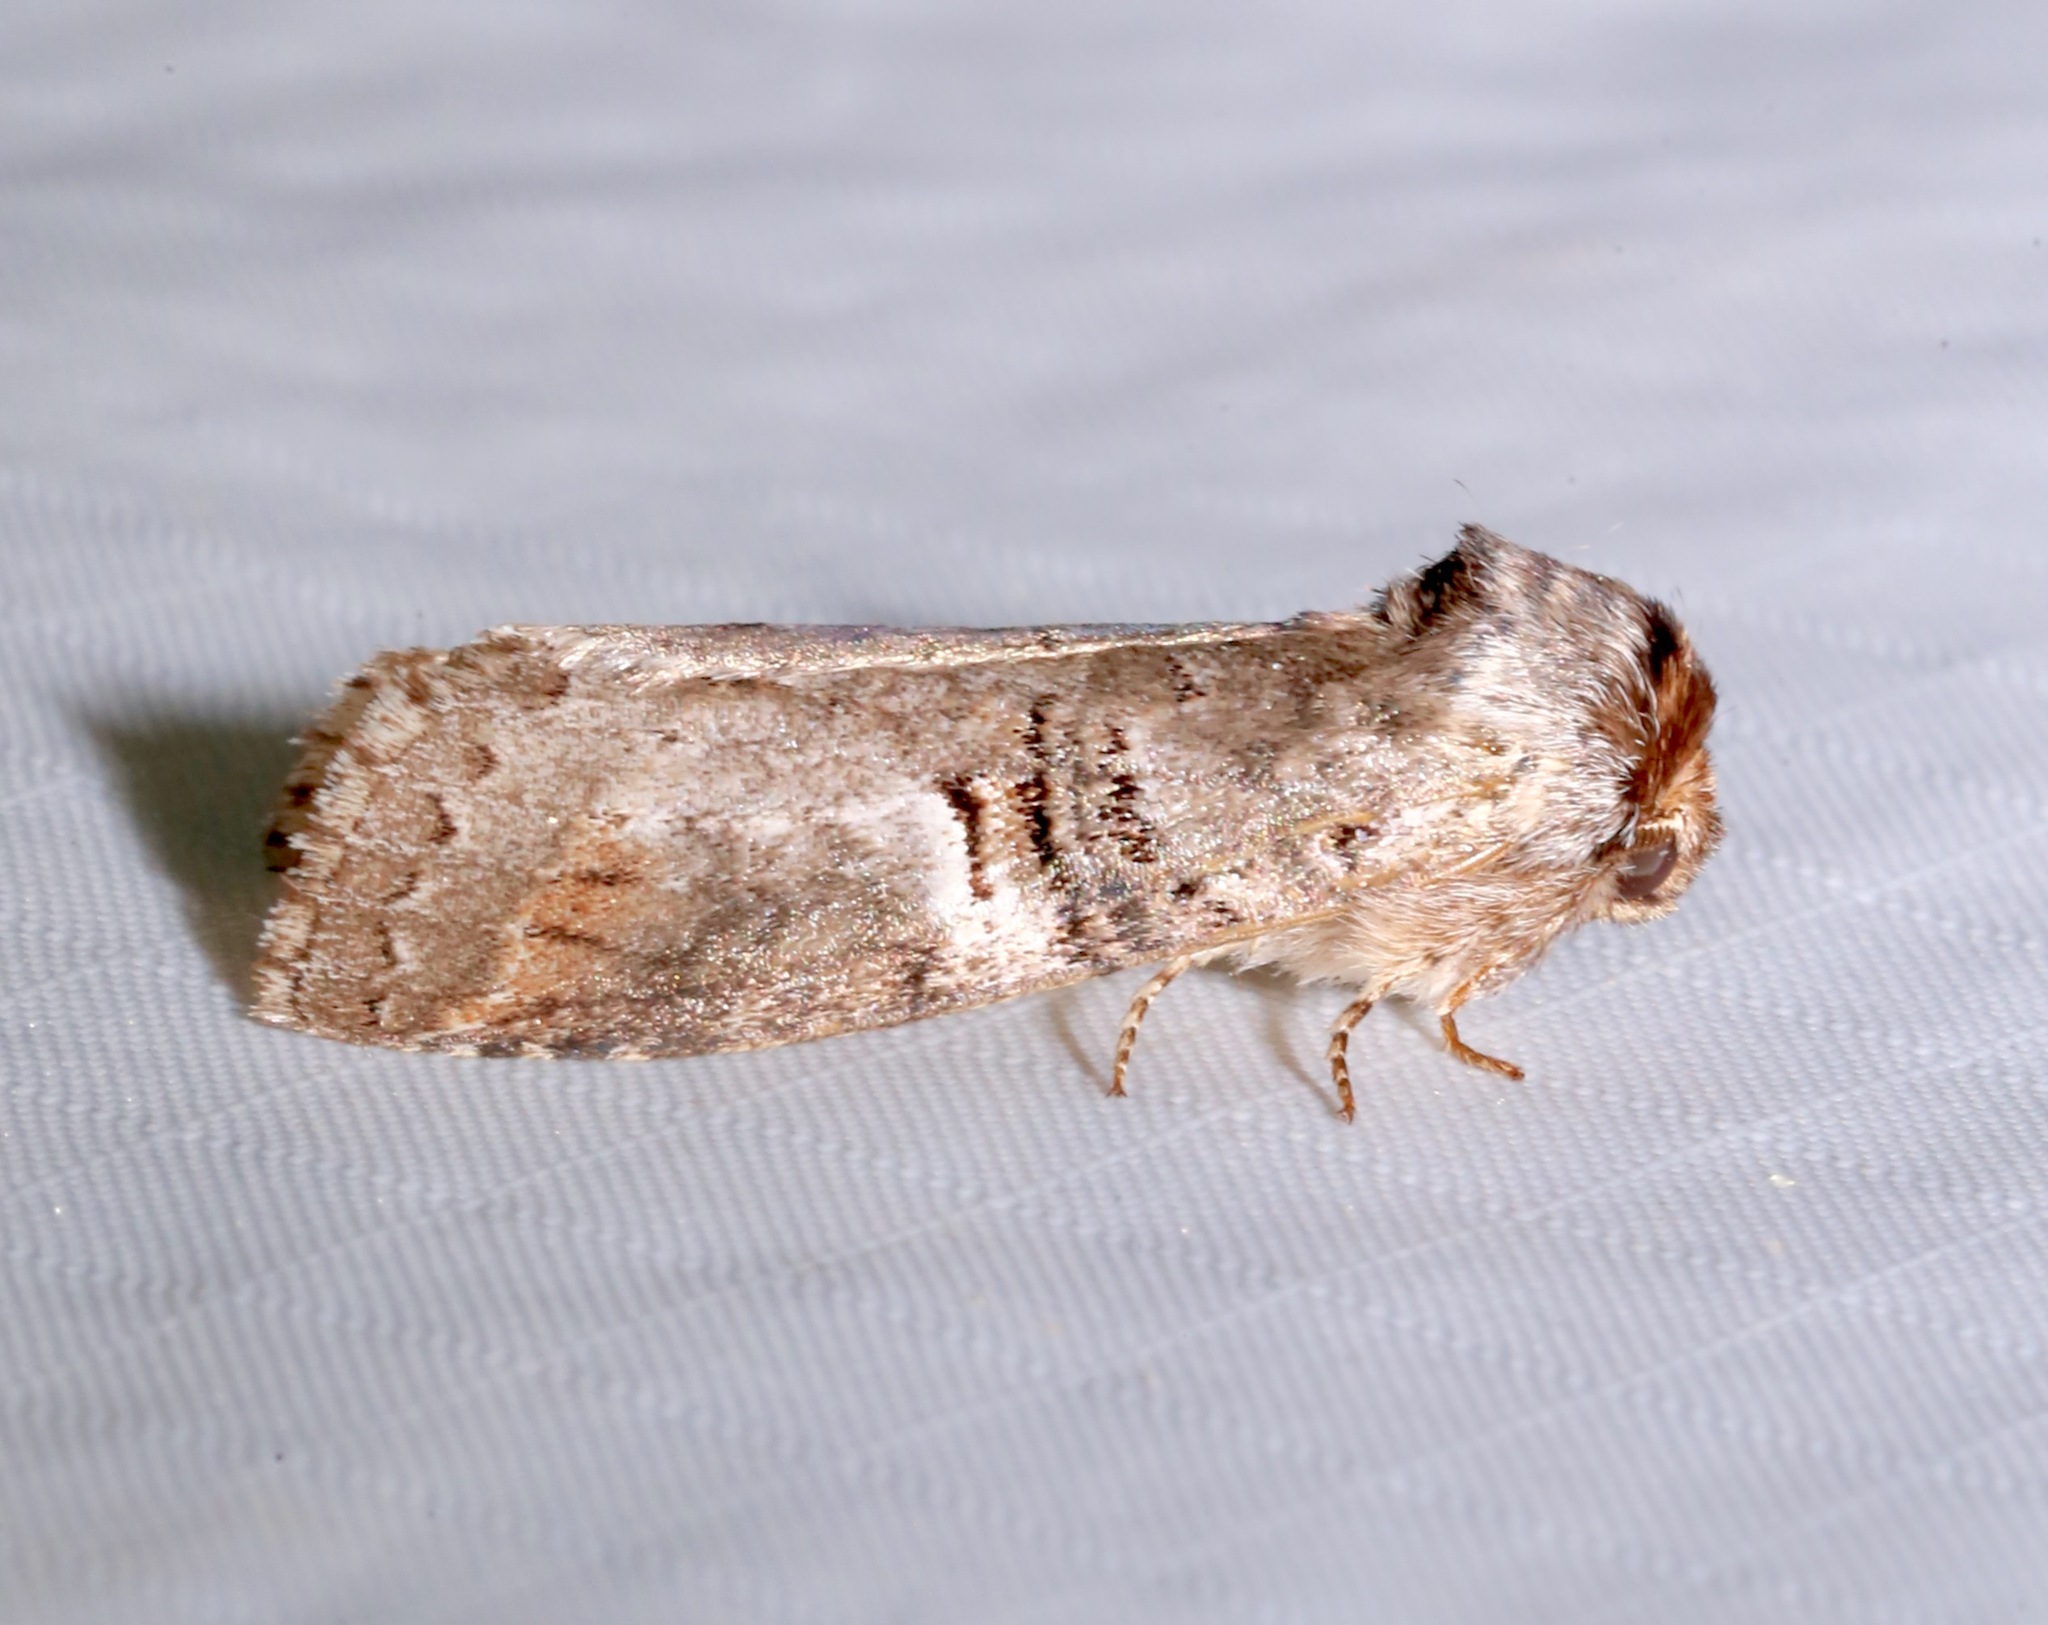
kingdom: Animalia
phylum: Arthropoda
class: Insecta
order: Lepidoptera
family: Notodontidae
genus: Ellida
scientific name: Ellida caniplaga
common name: Linden prominent
